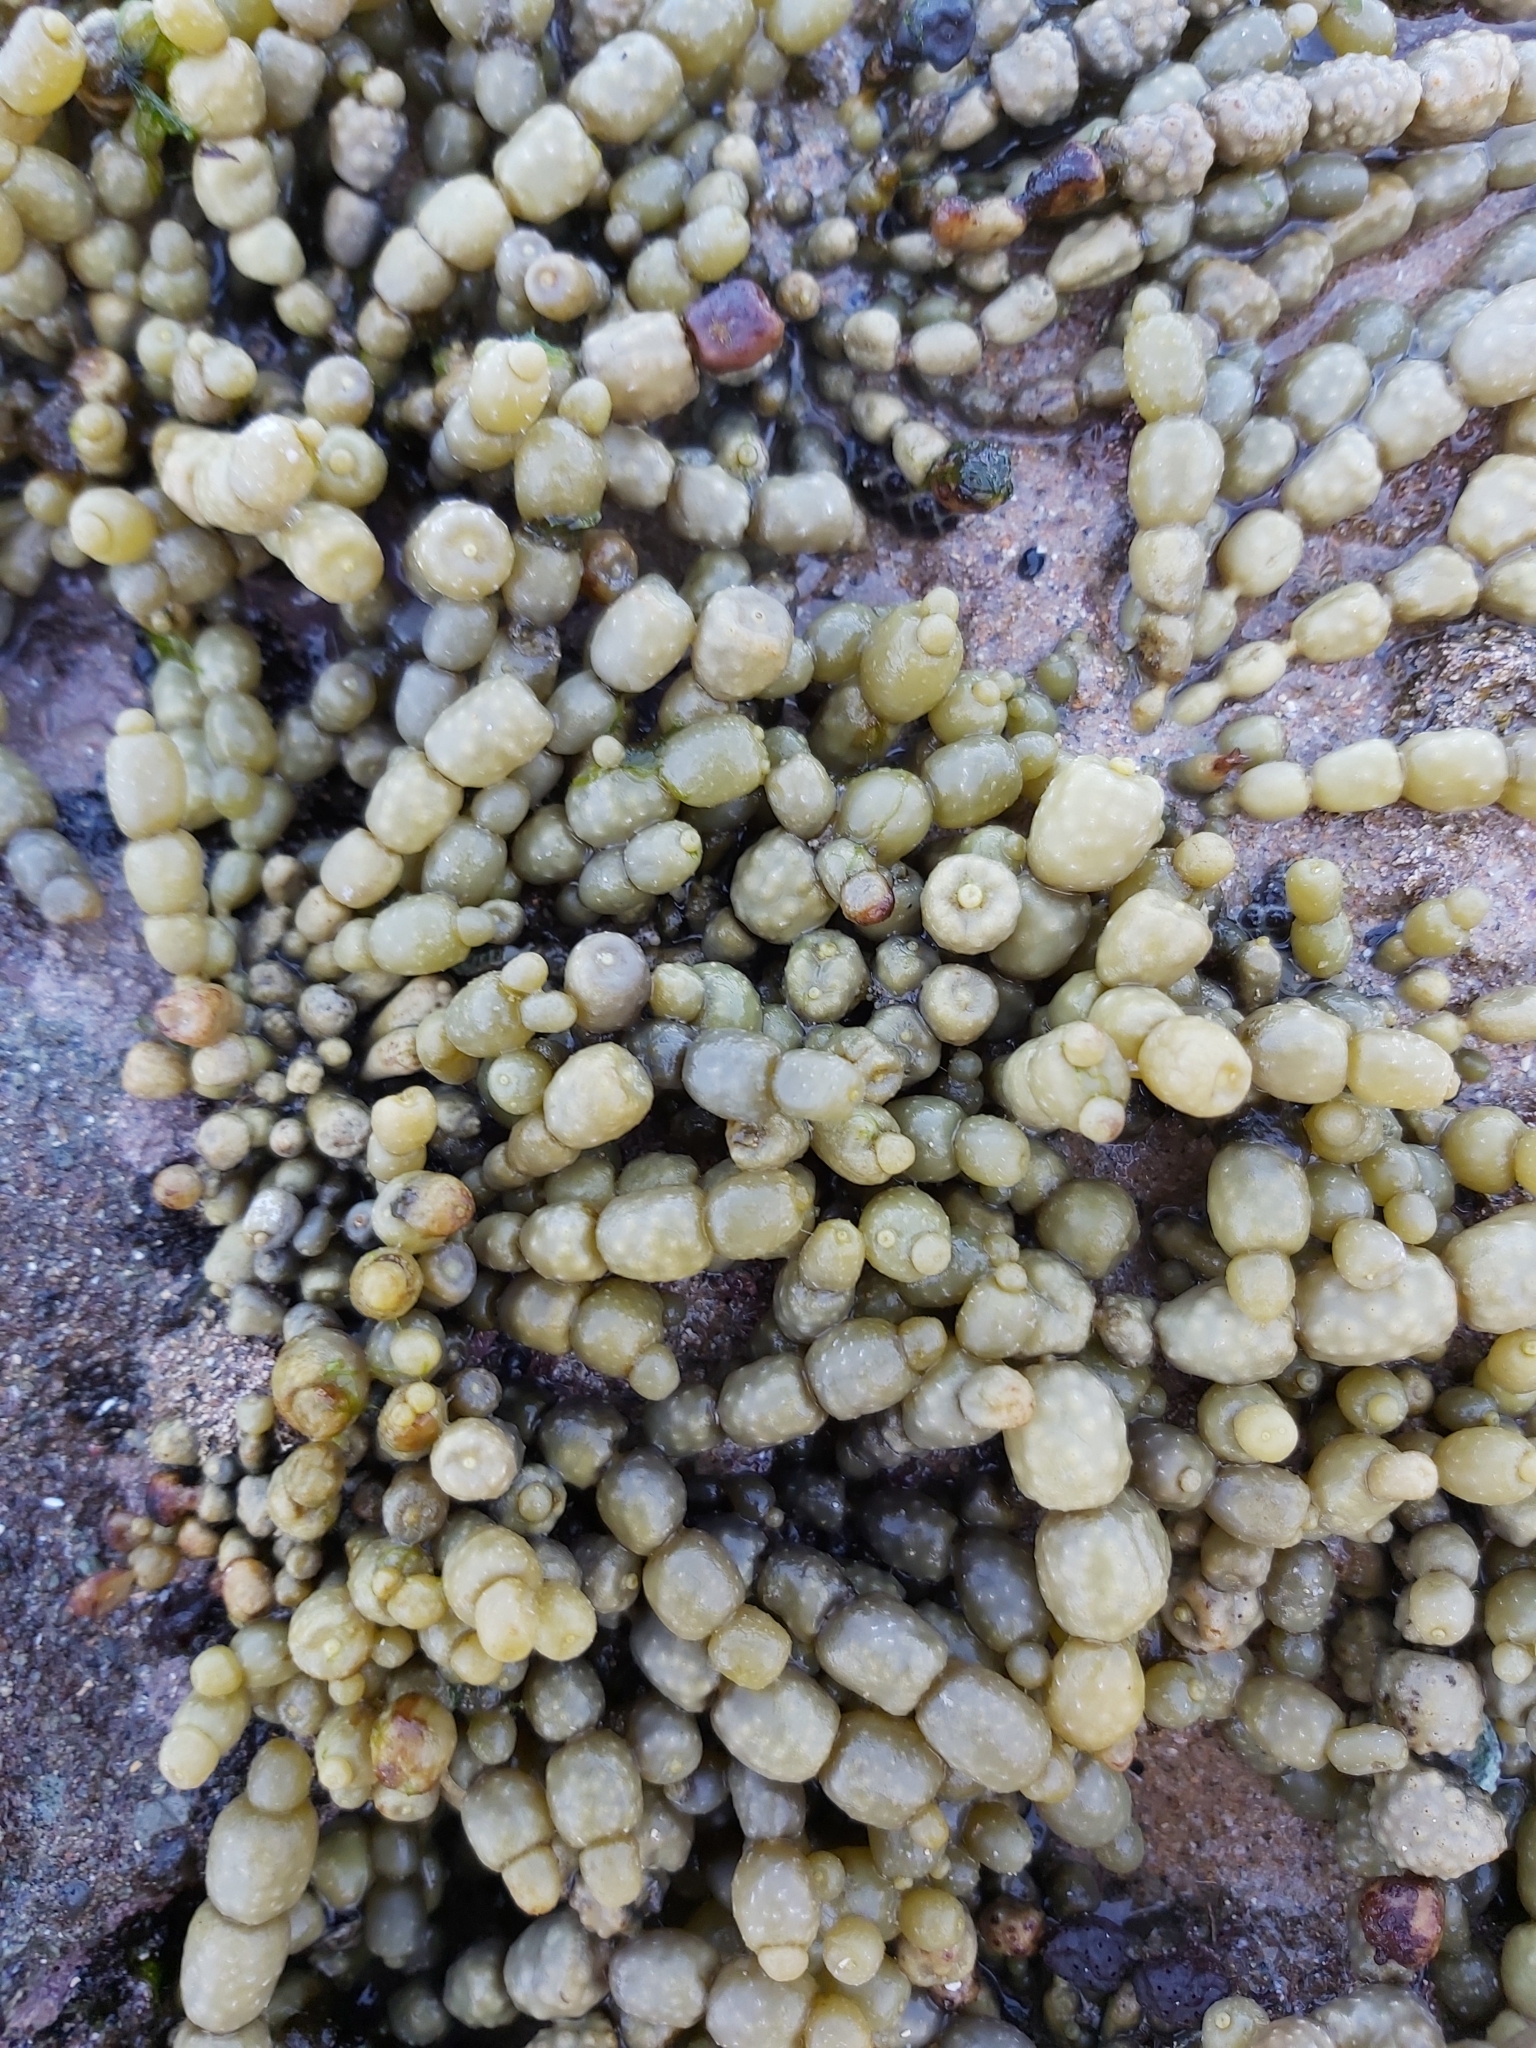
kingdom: Chromista
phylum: Ochrophyta
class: Phaeophyceae
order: Fucales
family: Hormosiraceae
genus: Hormosira
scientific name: Hormosira banksii
